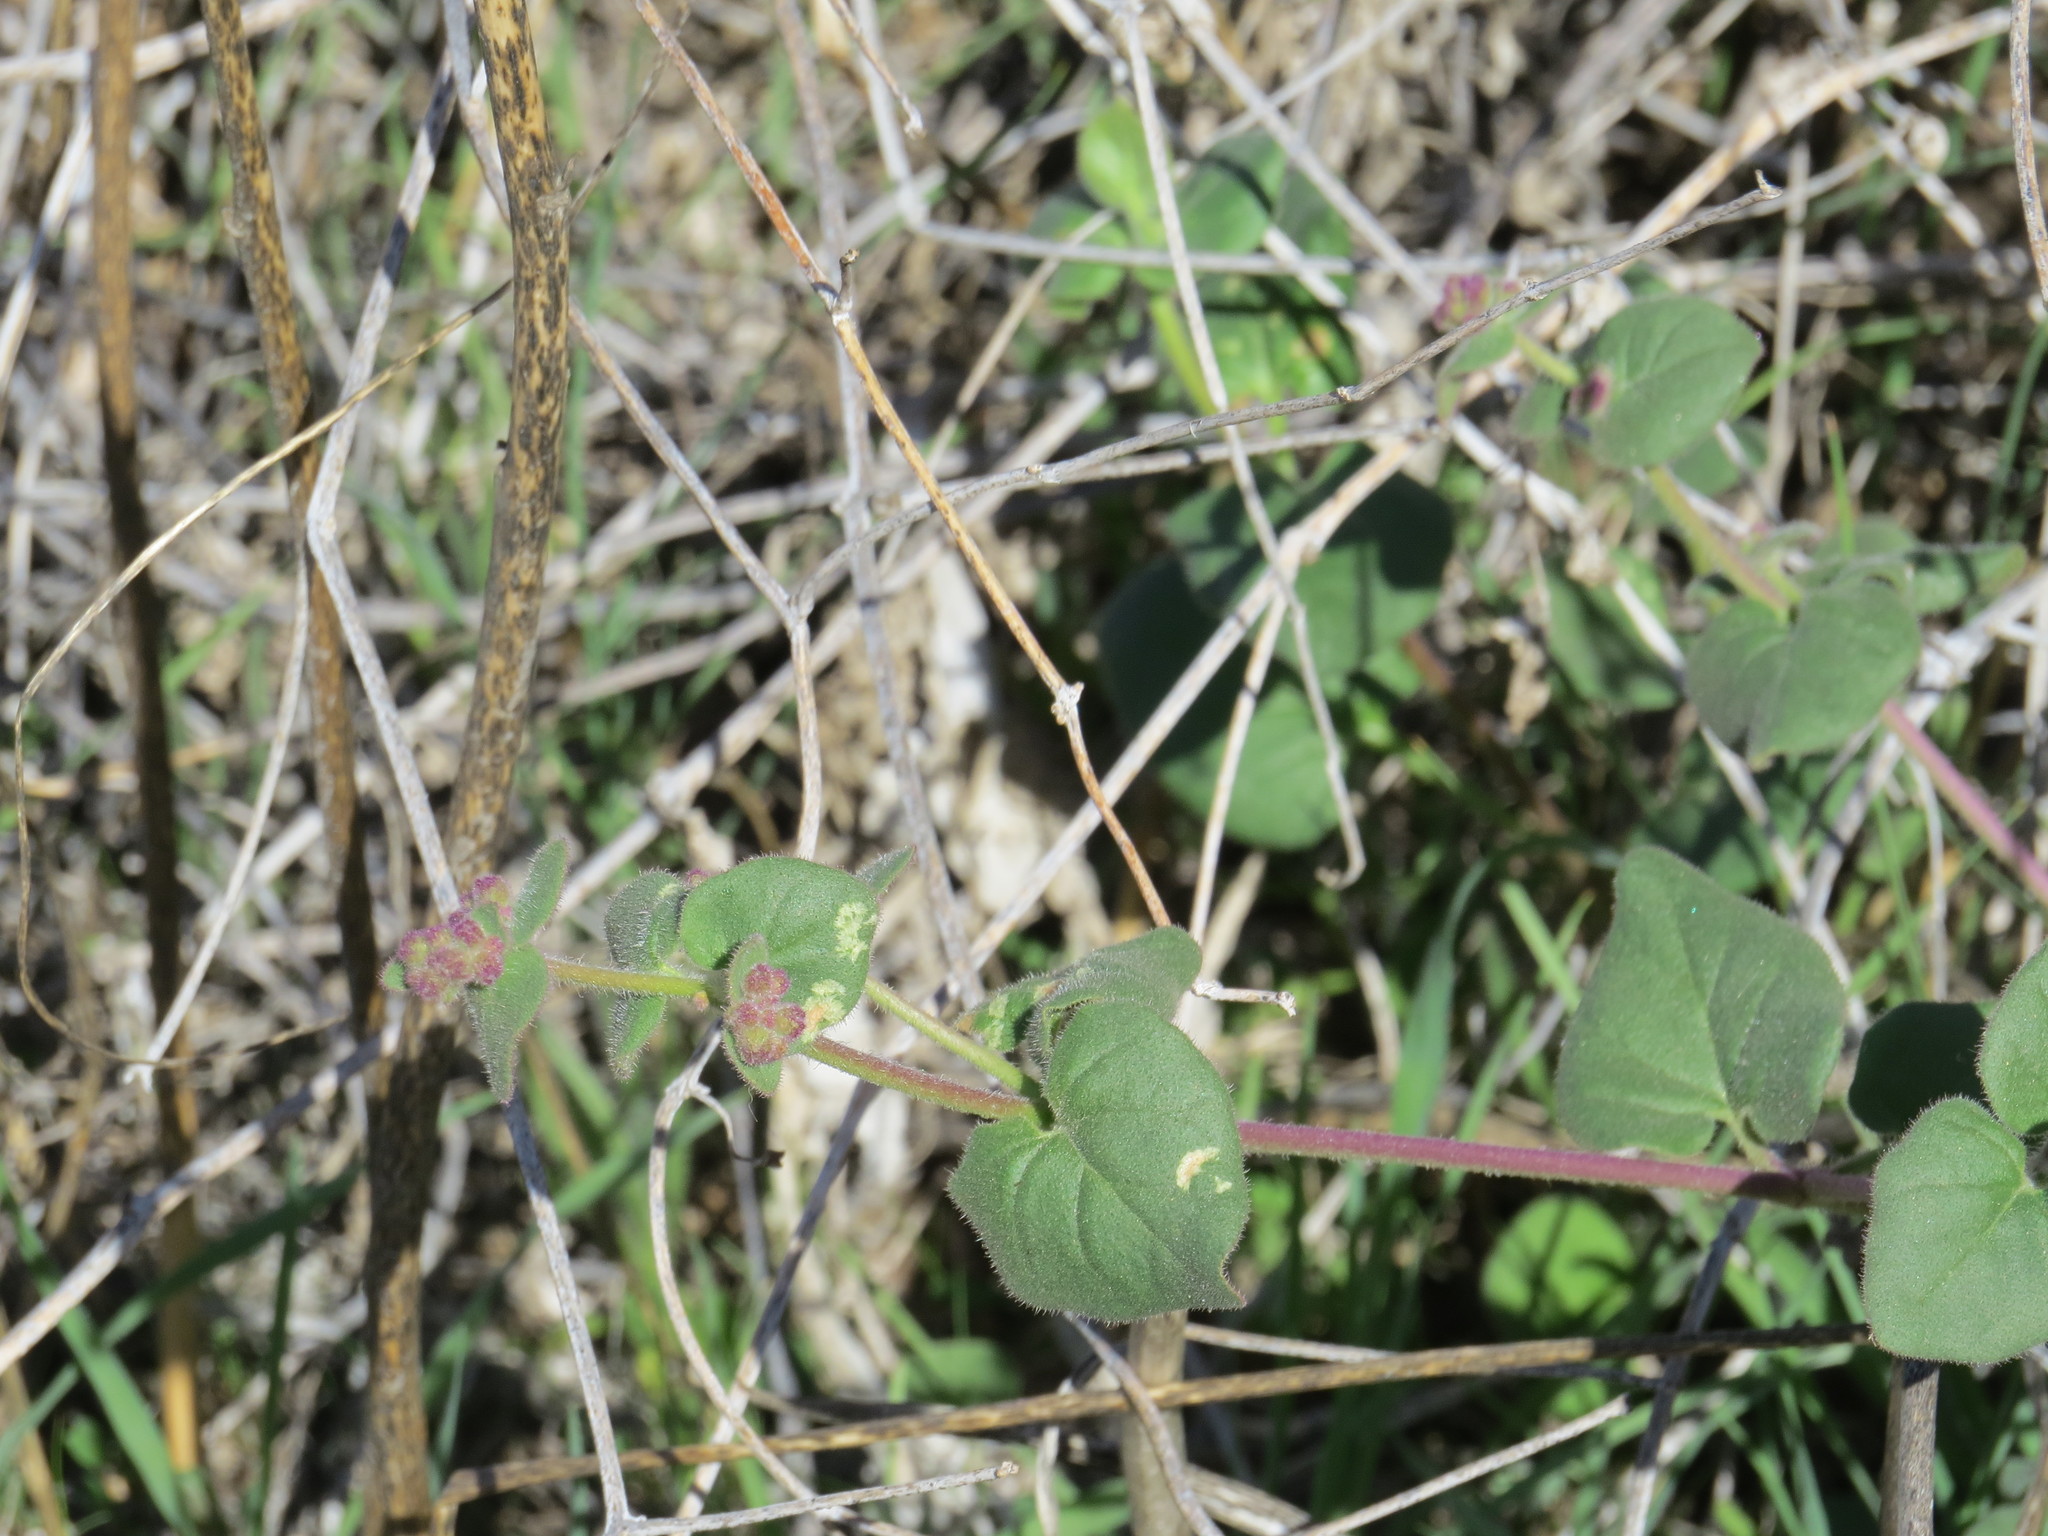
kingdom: Plantae
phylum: Tracheophyta
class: Magnoliopsida
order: Caryophyllales
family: Nyctaginaceae
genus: Mirabilis
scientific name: Mirabilis laevis
